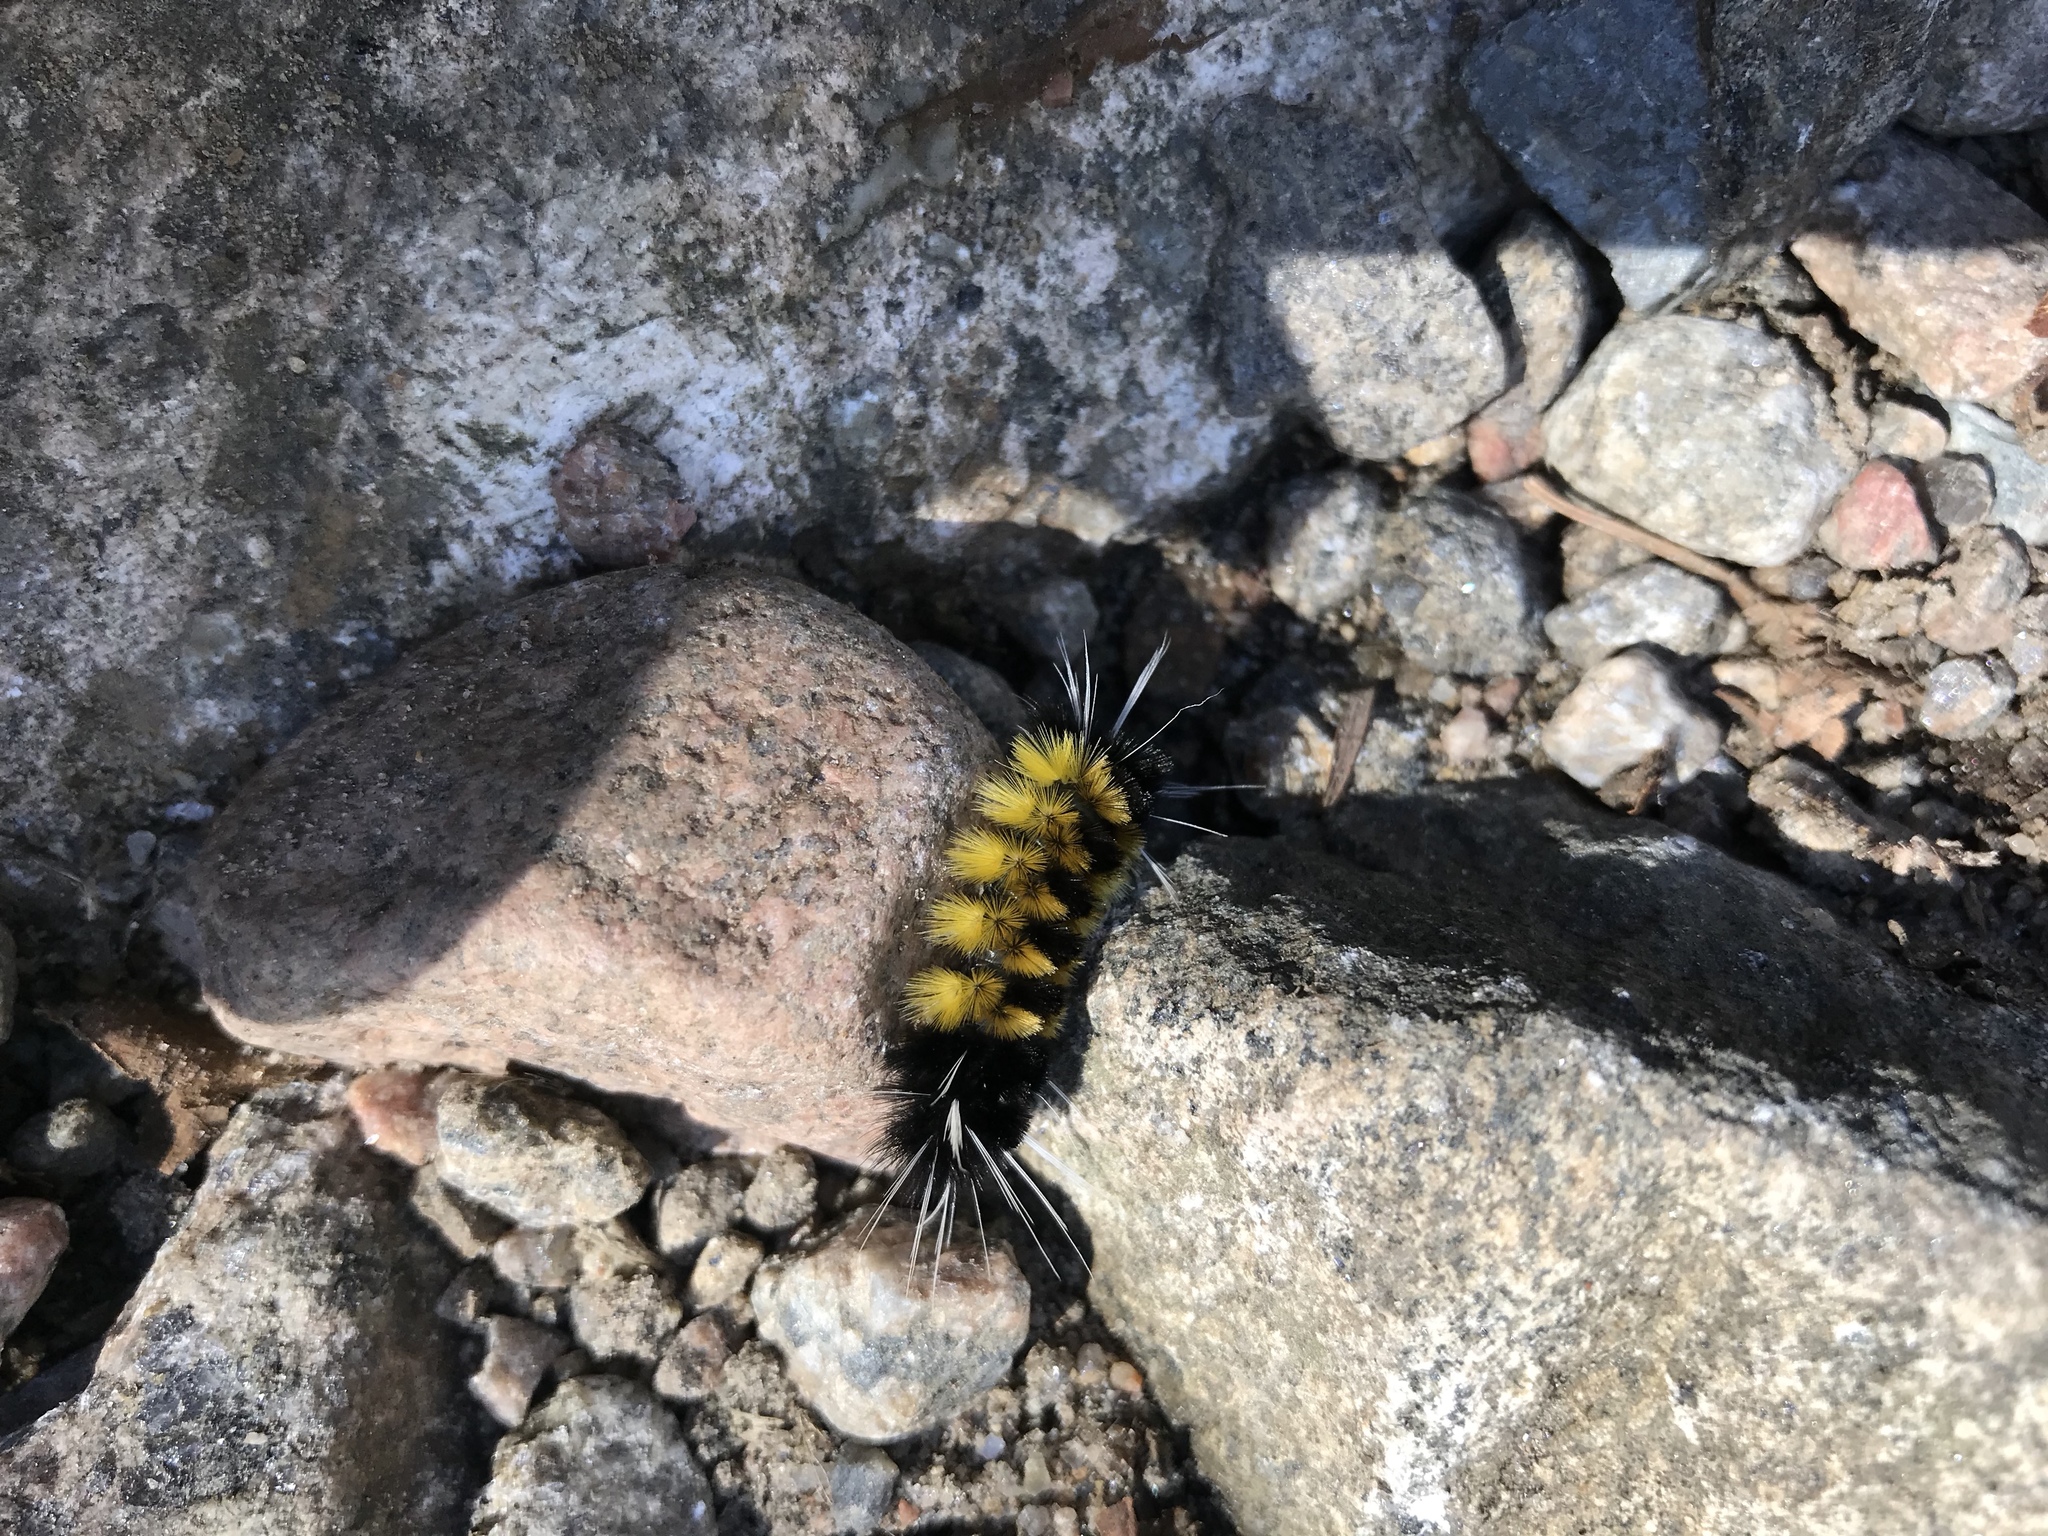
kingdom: Animalia
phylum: Arthropoda
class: Insecta
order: Lepidoptera
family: Erebidae
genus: Lophocampa
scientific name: Lophocampa maculata
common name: Spotted tussock moth
